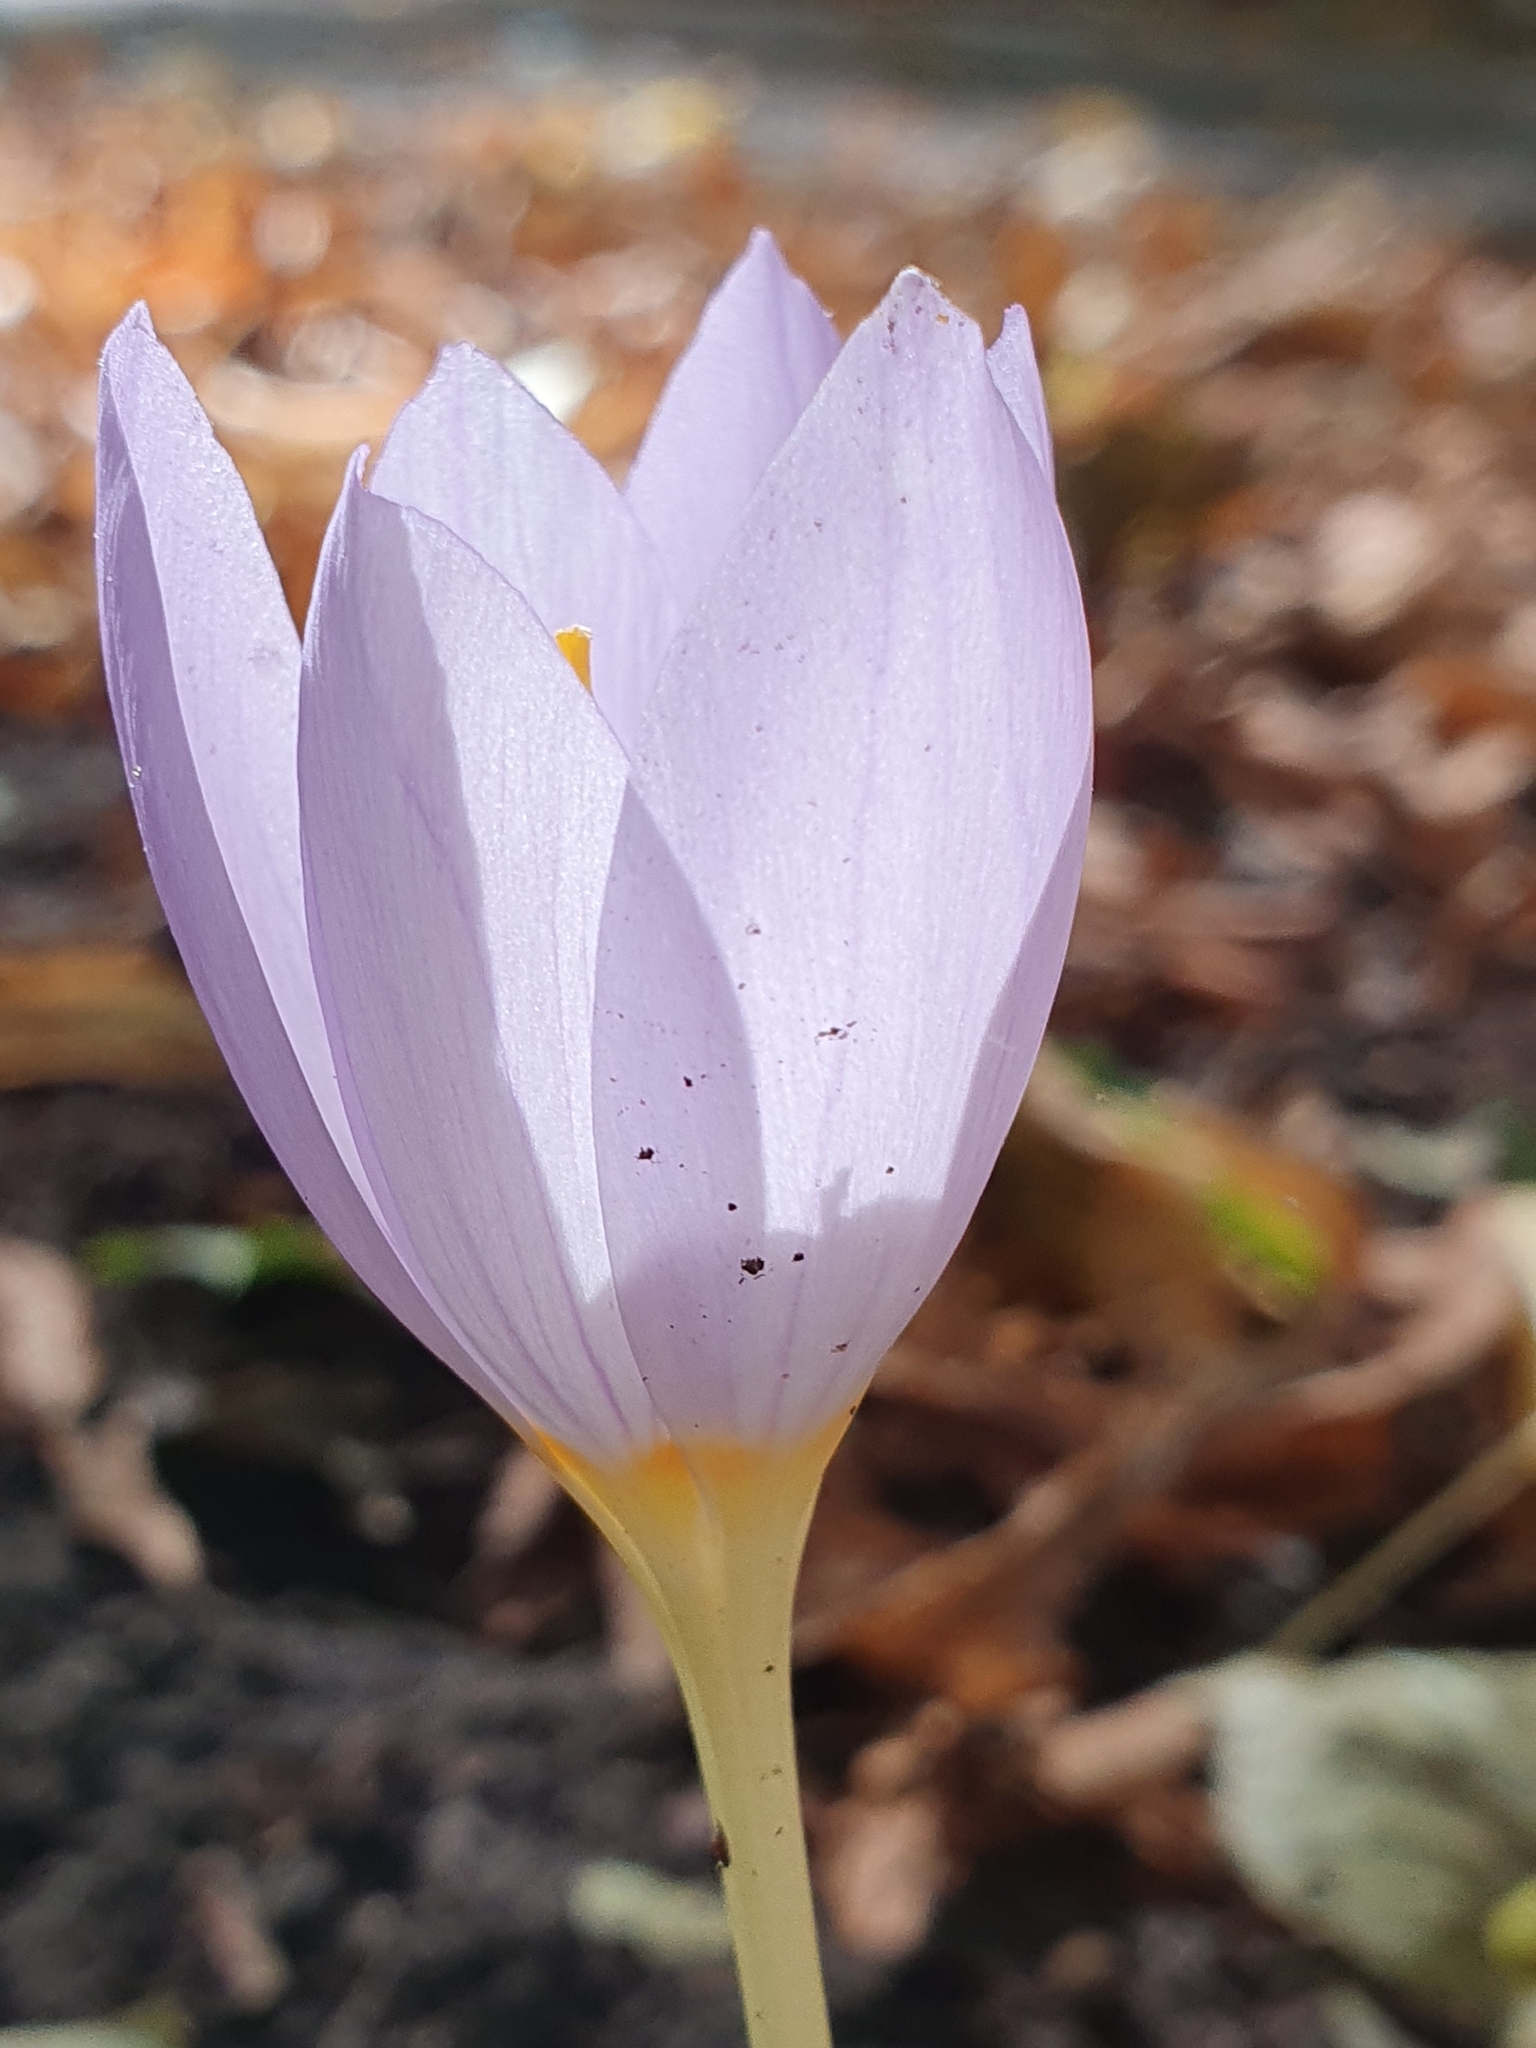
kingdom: Plantae
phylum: Tracheophyta
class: Liliopsida
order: Asparagales
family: Iridaceae
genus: Crocus
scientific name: Crocus kotschyanus
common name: Kotschy's crocus
